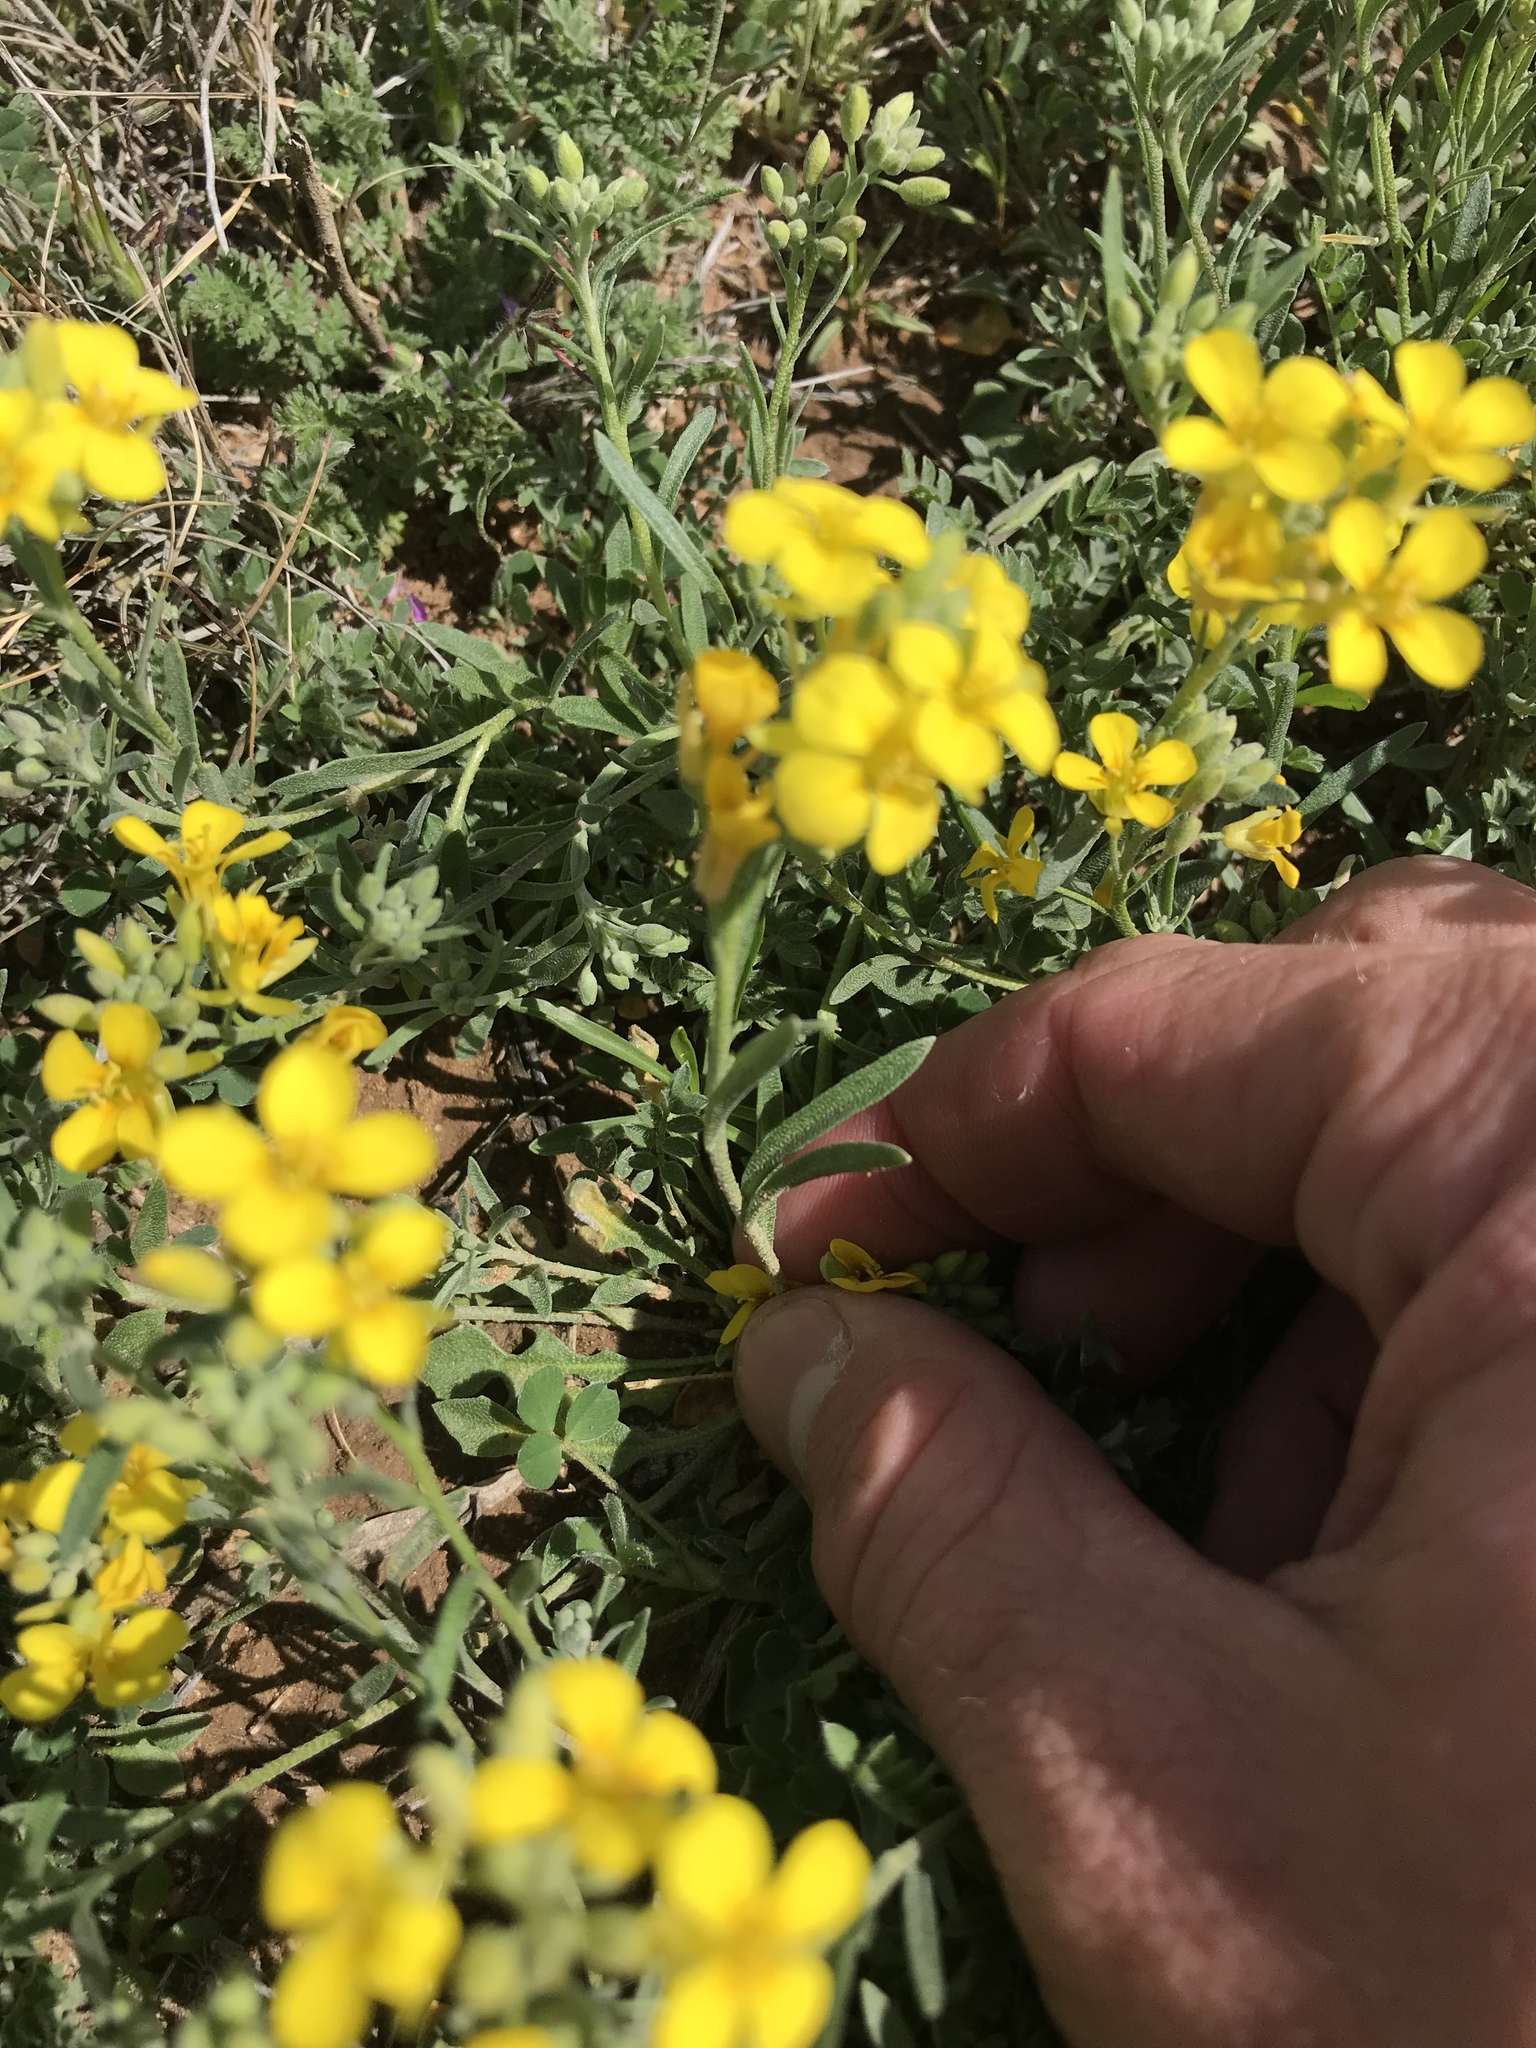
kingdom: Plantae
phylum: Tracheophyta
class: Magnoliopsida
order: Brassicales
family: Brassicaceae
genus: Physaria
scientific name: Physaria gordonii
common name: Gordon's bladderpod
